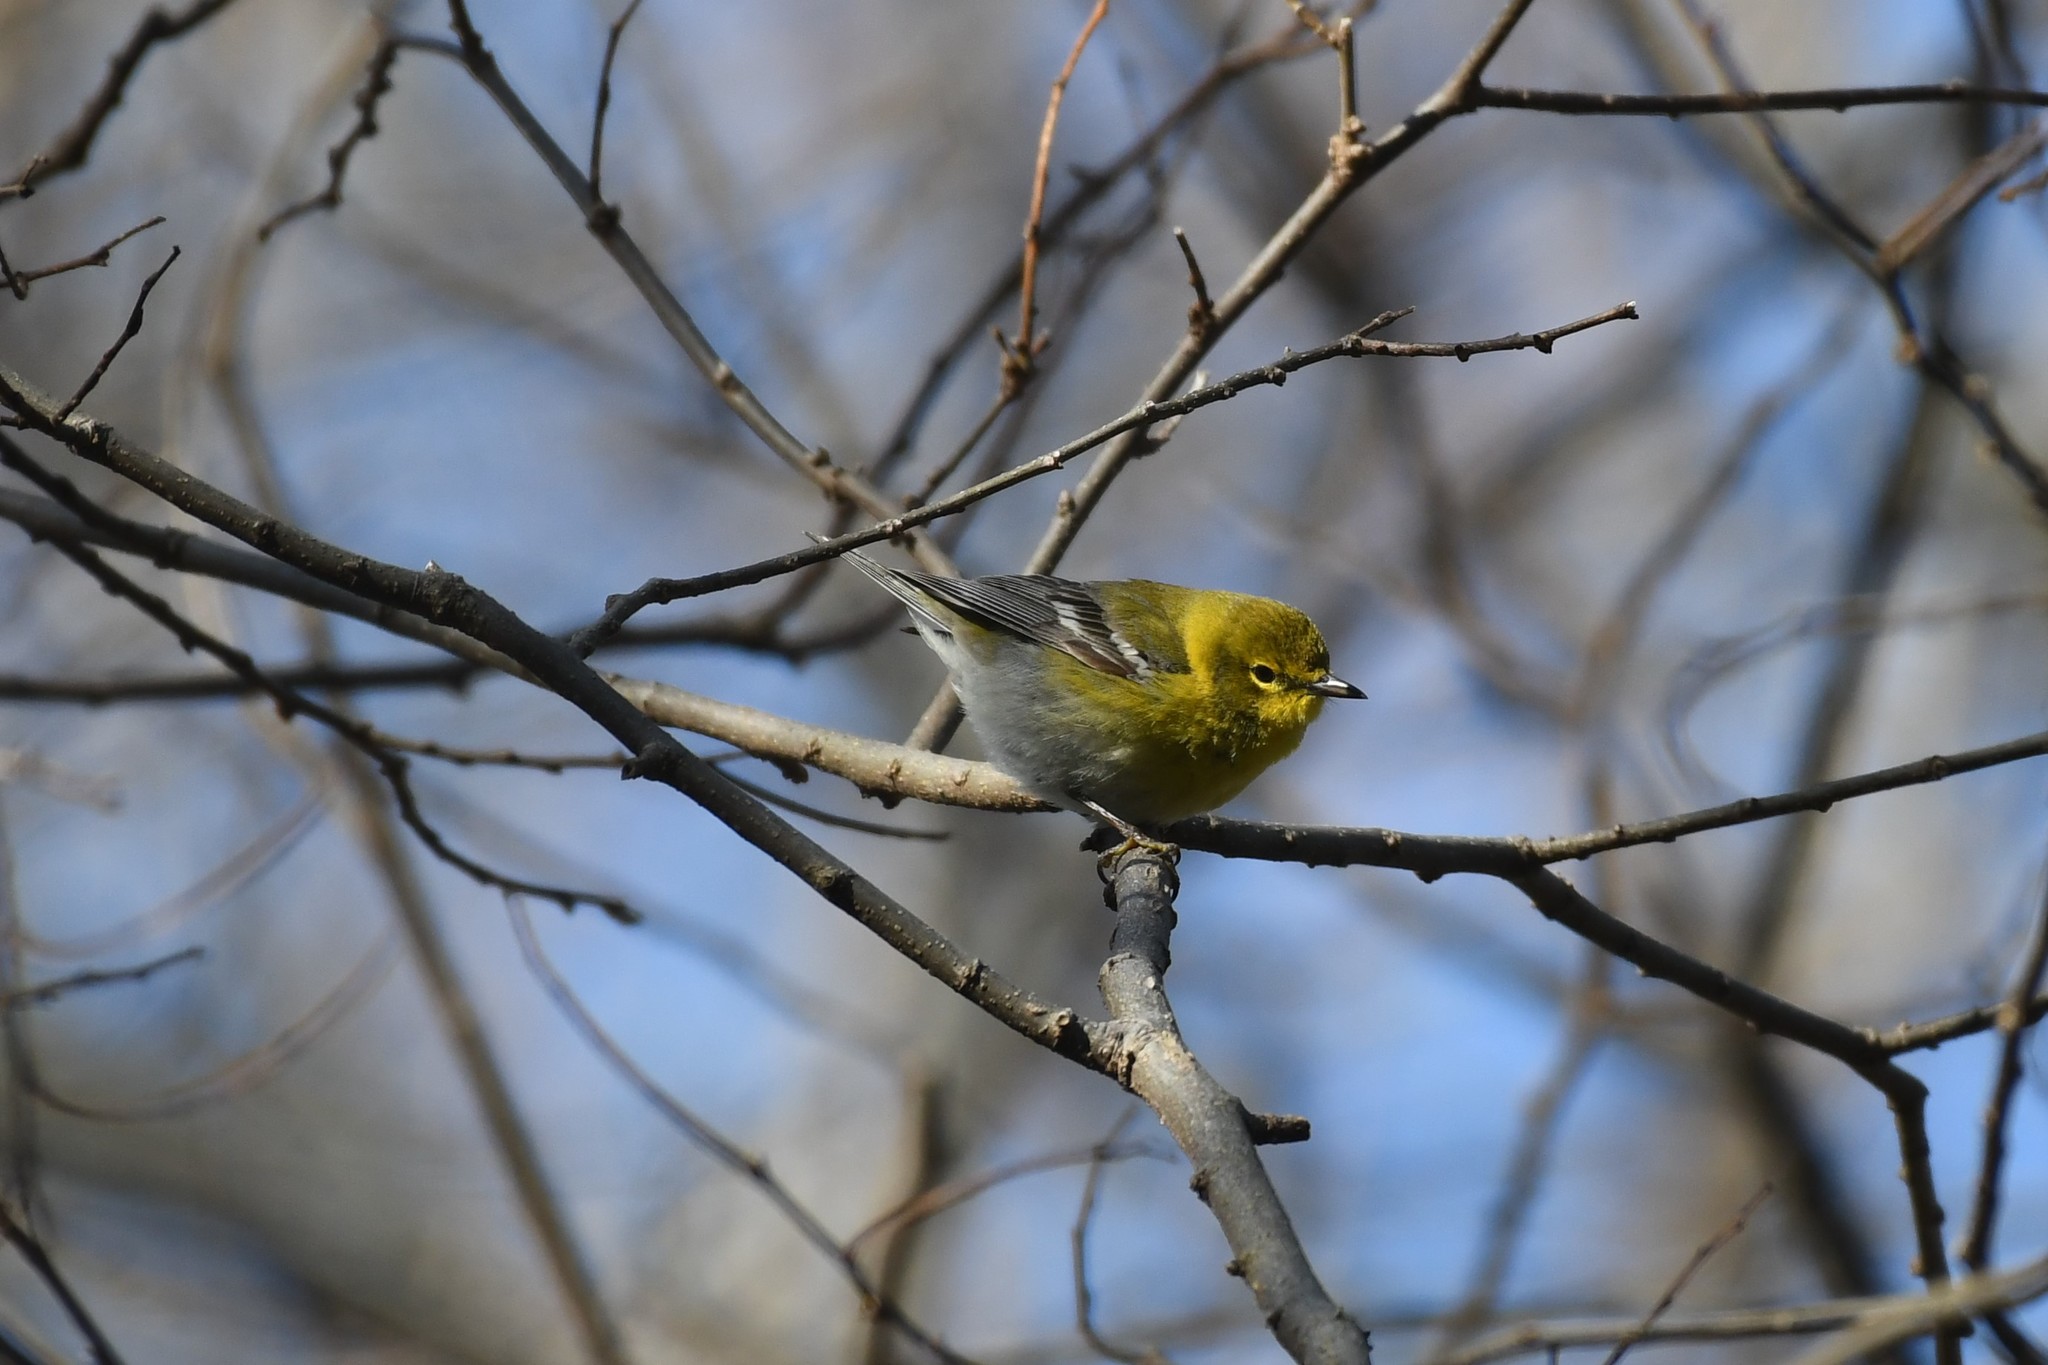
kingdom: Animalia
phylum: Chordata
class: Aves
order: Passeriformes
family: Parulidae
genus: Setophaga
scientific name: Setophaga pinus
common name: Pine warbler
